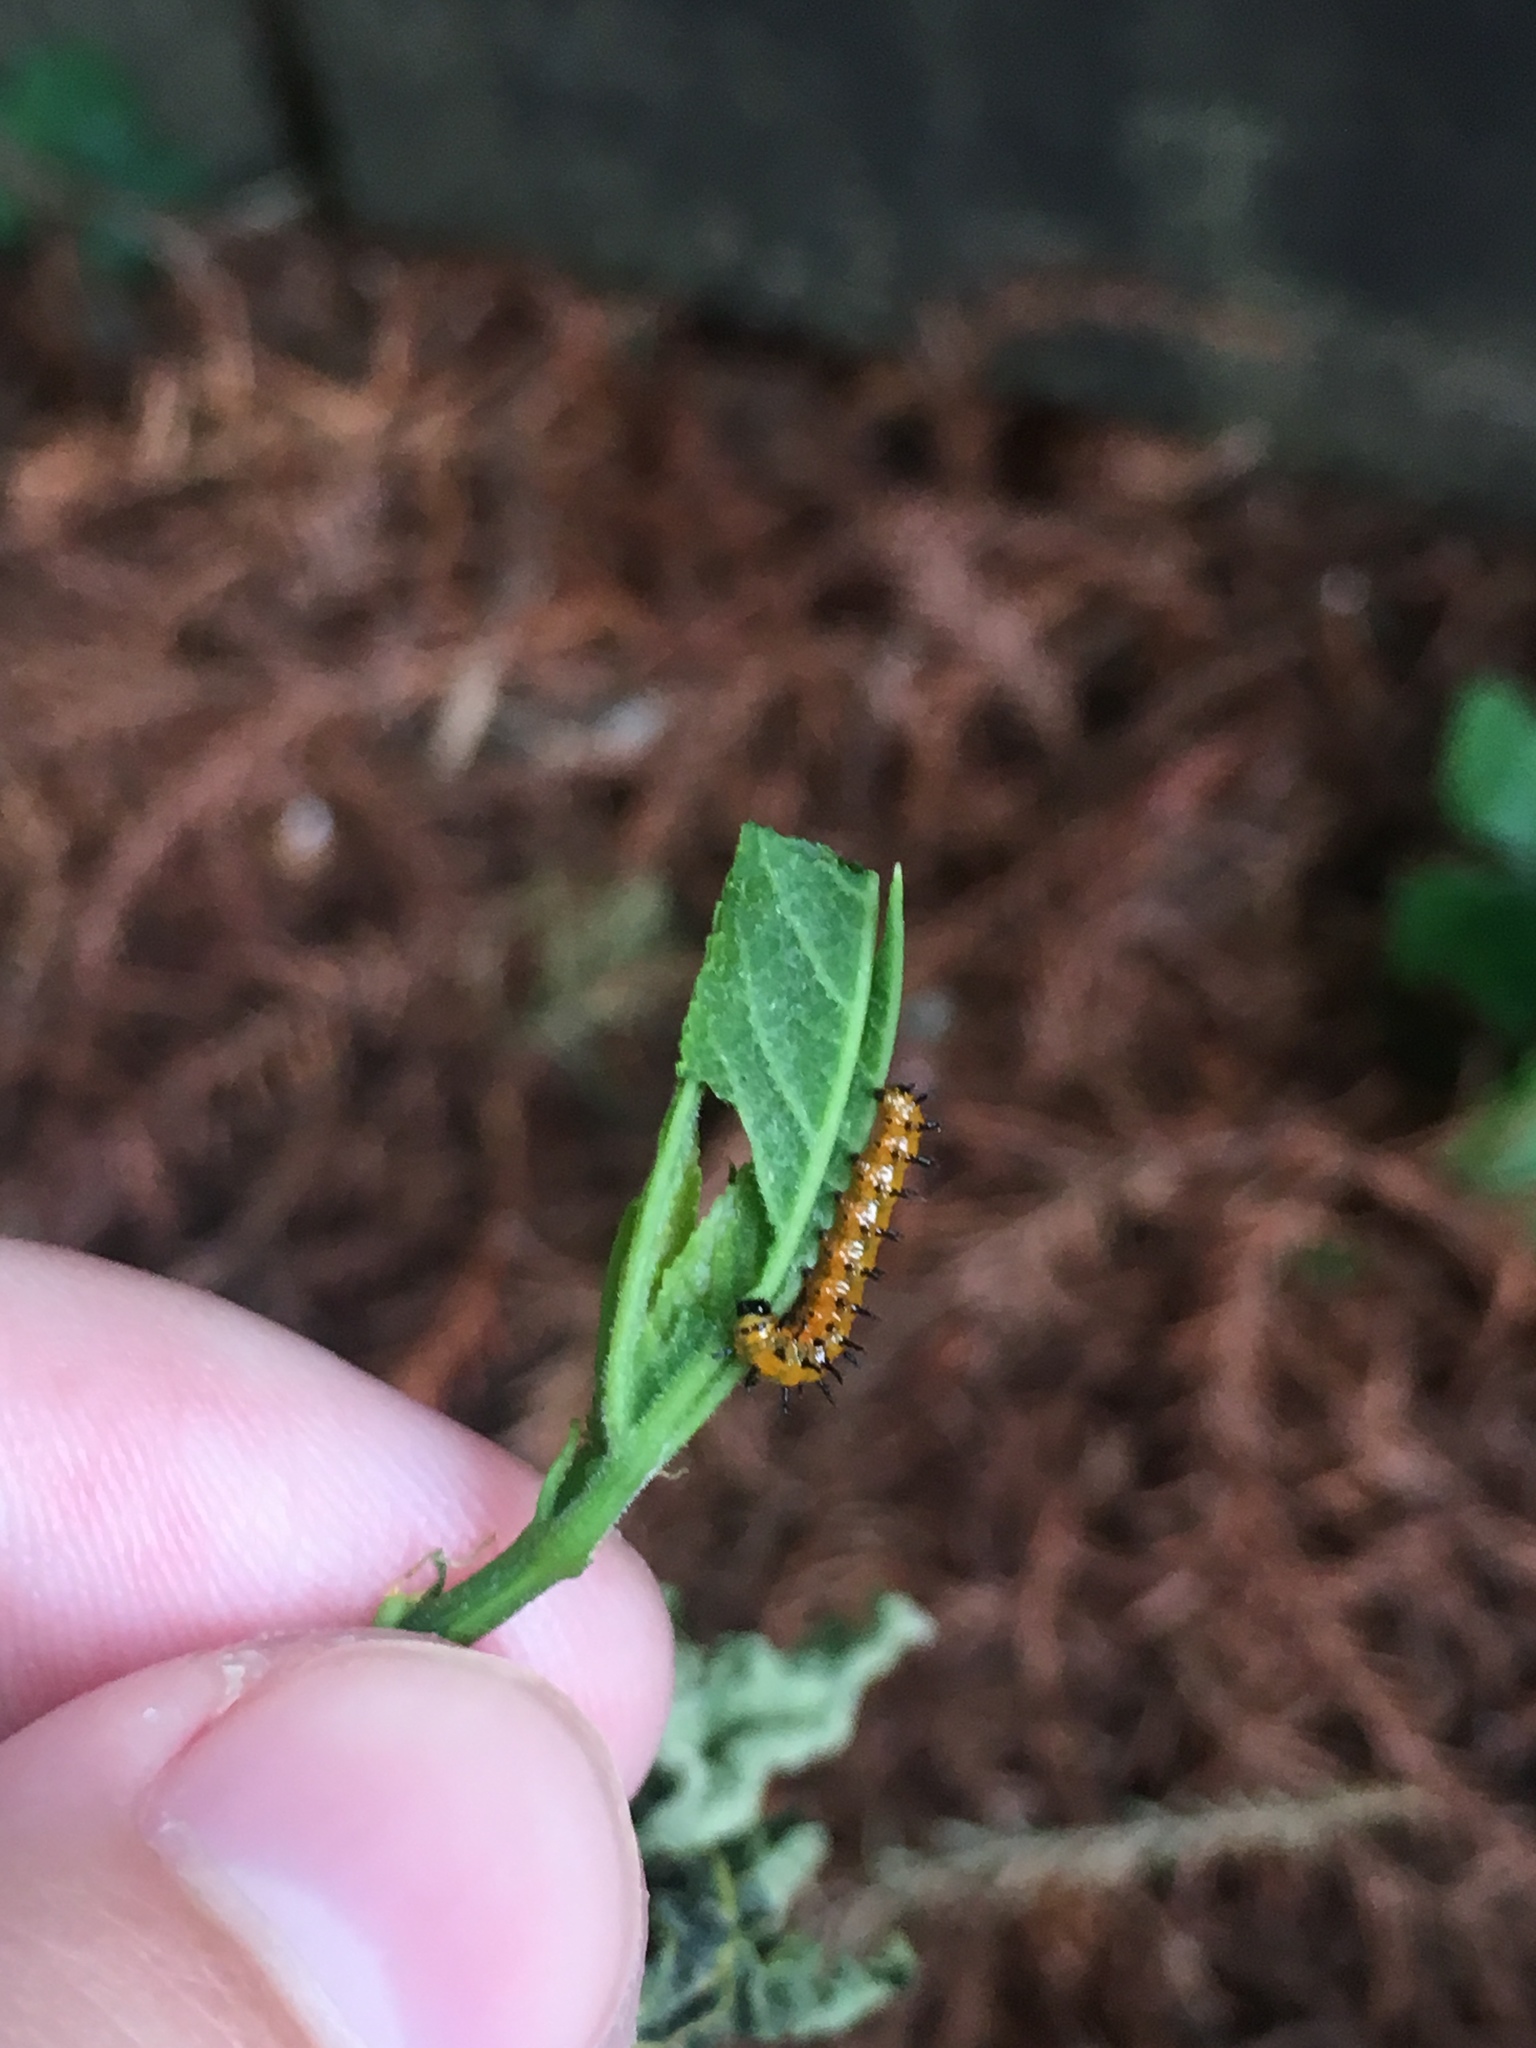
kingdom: Animalia
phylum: Arthropoda
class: Insecta
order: Lepidoptera
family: Nymphalidae
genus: Dione
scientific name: Dione vanillae
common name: Gulf fritillary
